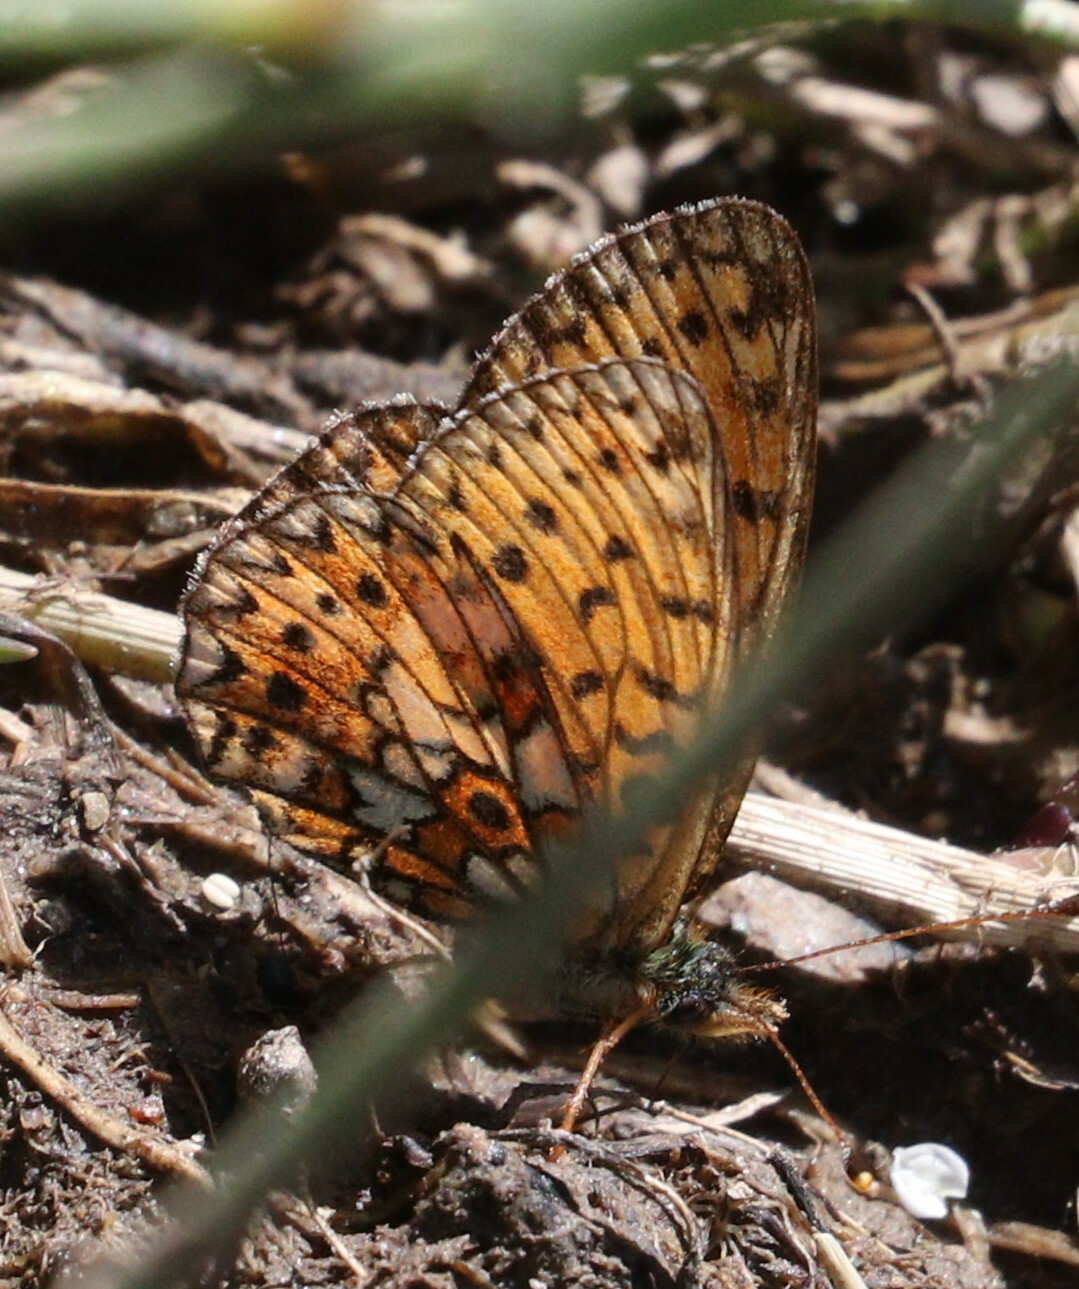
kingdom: Animalia
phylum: Arthropoda
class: Insecta
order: Lepidoptera
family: Nymphalidae
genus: Boloria
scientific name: Boloria selene
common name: Small pearl-bordered fritillary
